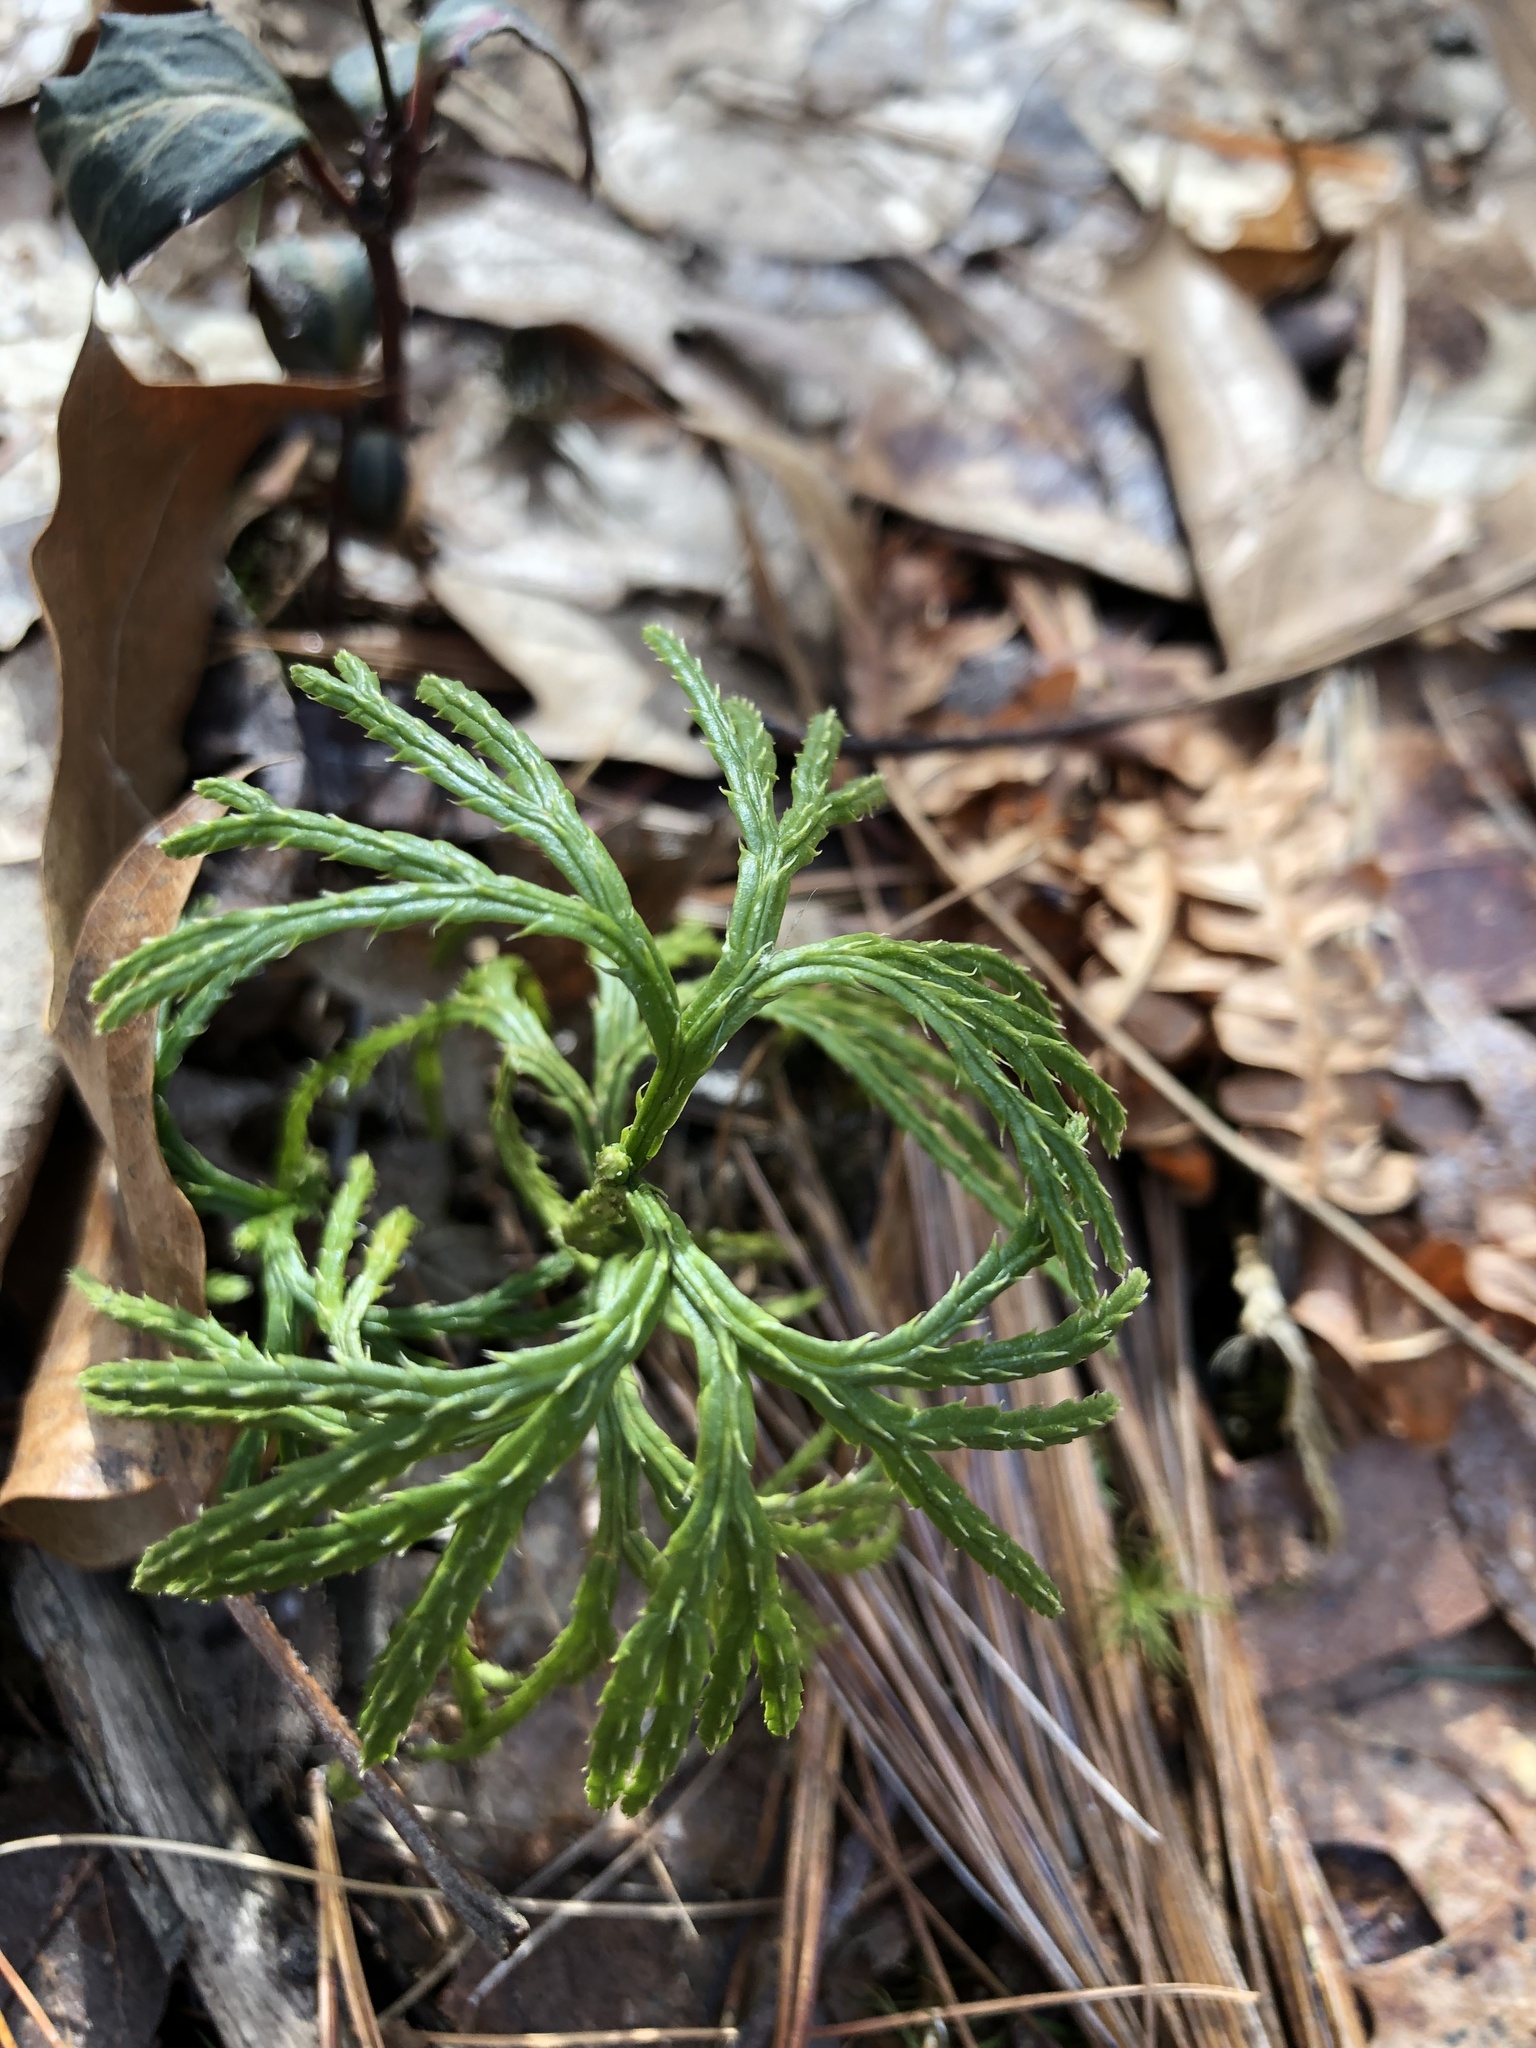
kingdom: Plantae
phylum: Tracheophyta
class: Lycopodiopsida
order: Lycopodiales
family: Lycopodiaceae
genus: Diphasiastrum
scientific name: Diphasiastrum digitatum
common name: Southern running-pine
